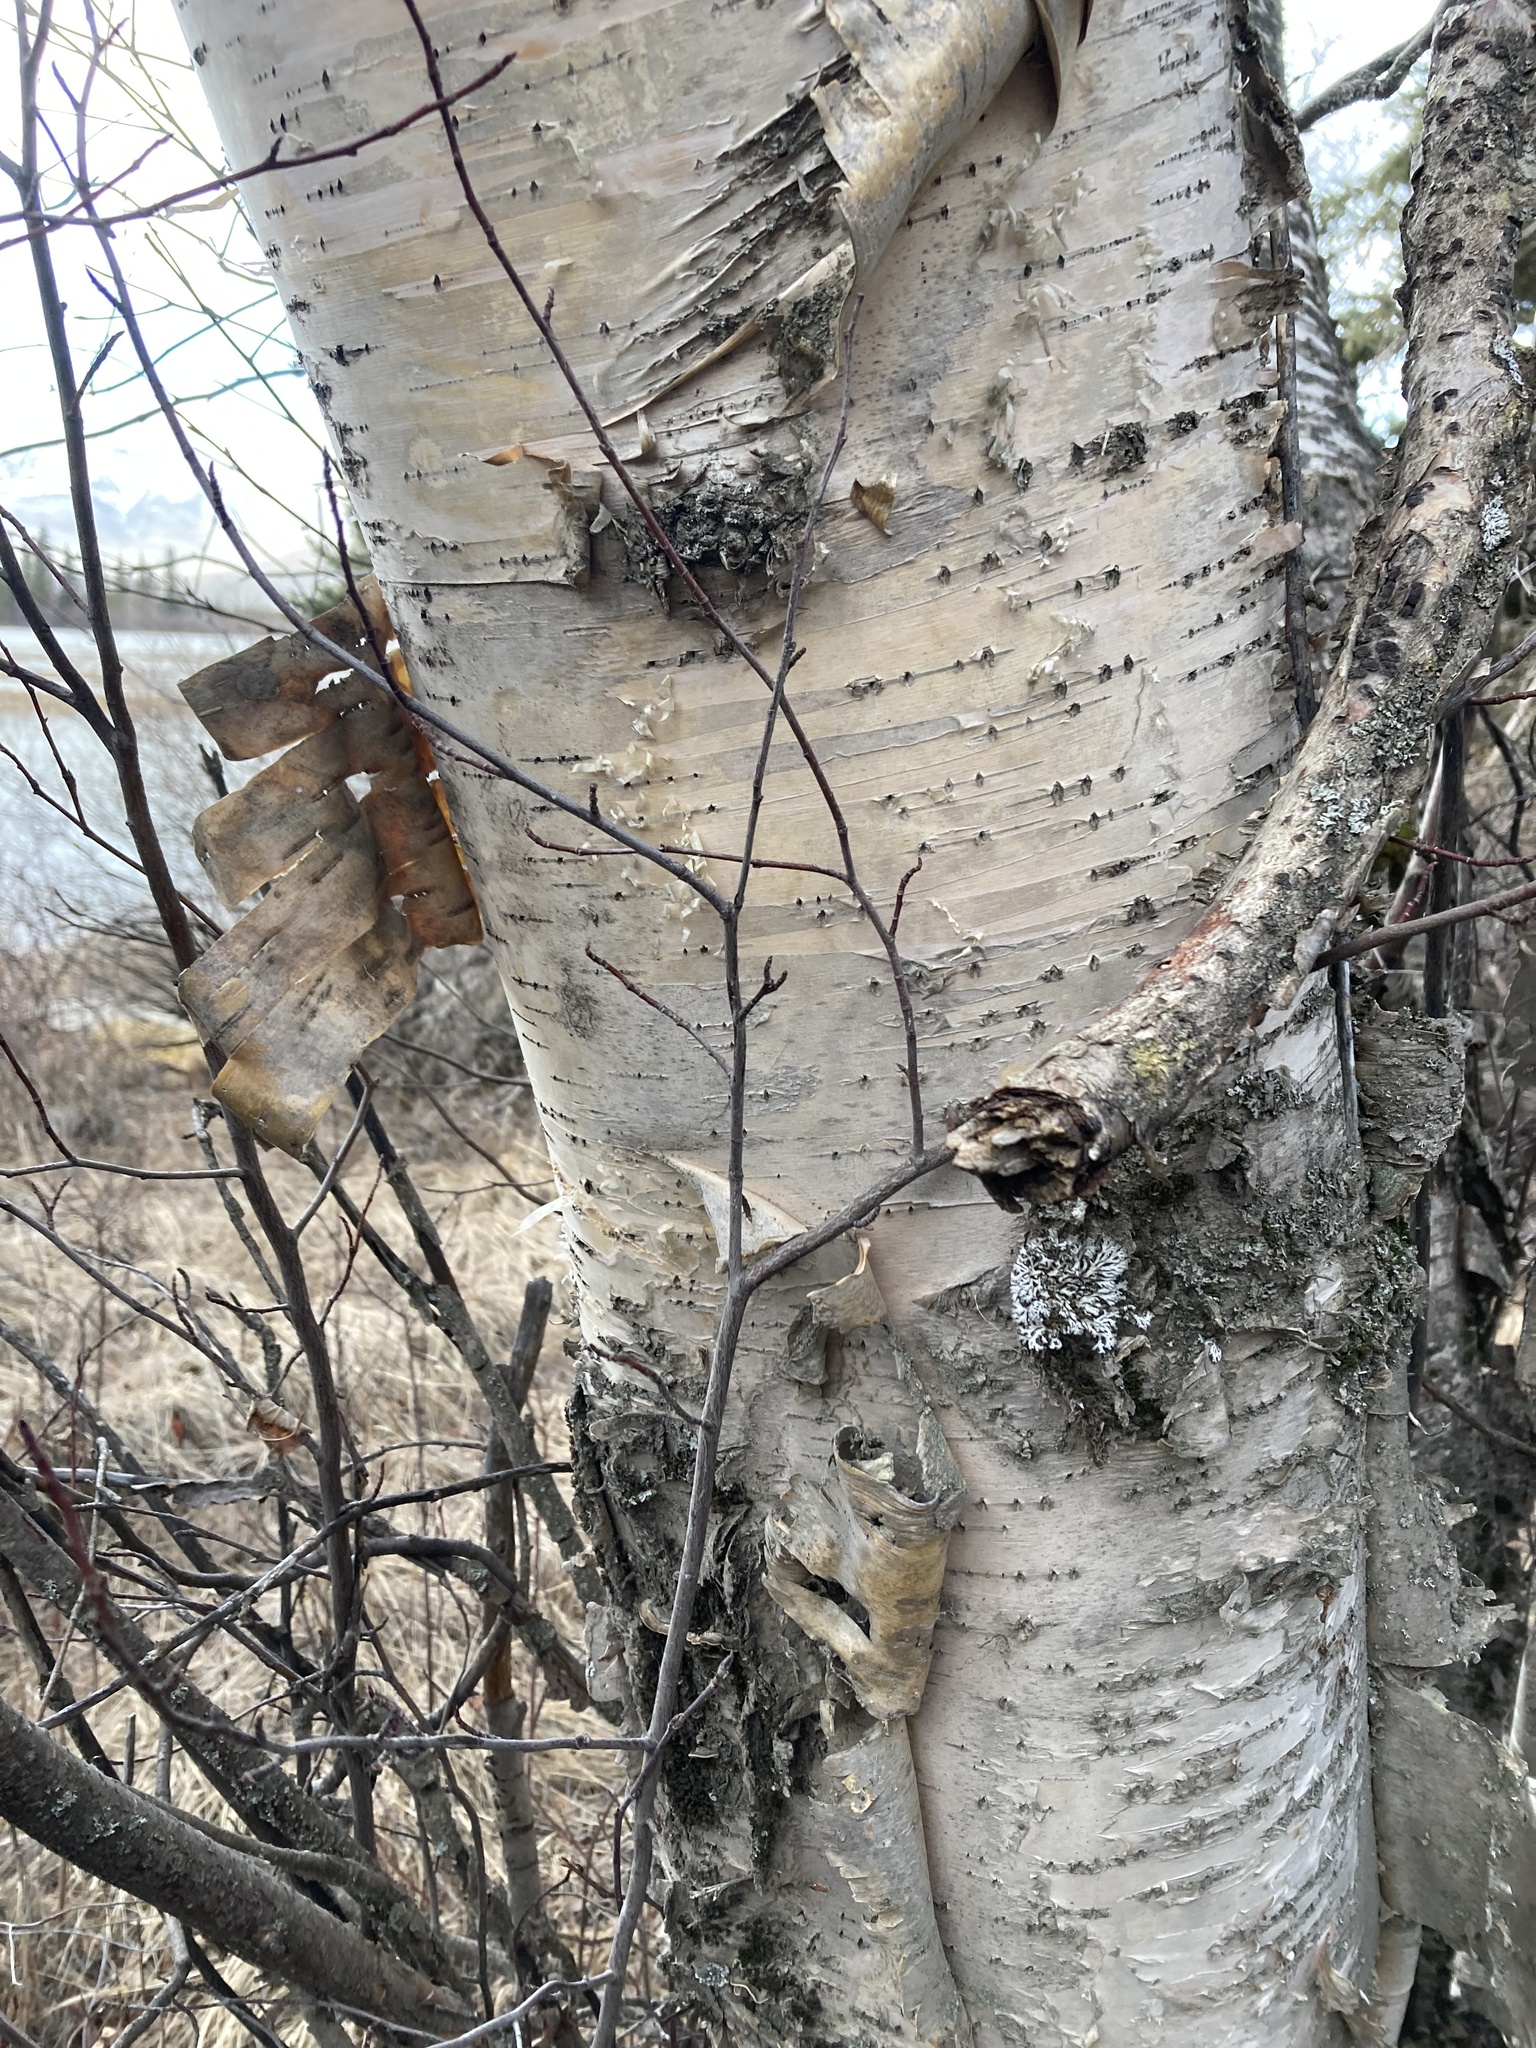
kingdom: Plantae
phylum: Tracheophyta
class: Magnoliopsida
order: Fagales
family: Betulaceae
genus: Betula
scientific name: Betula papyrifera
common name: Paper birch
